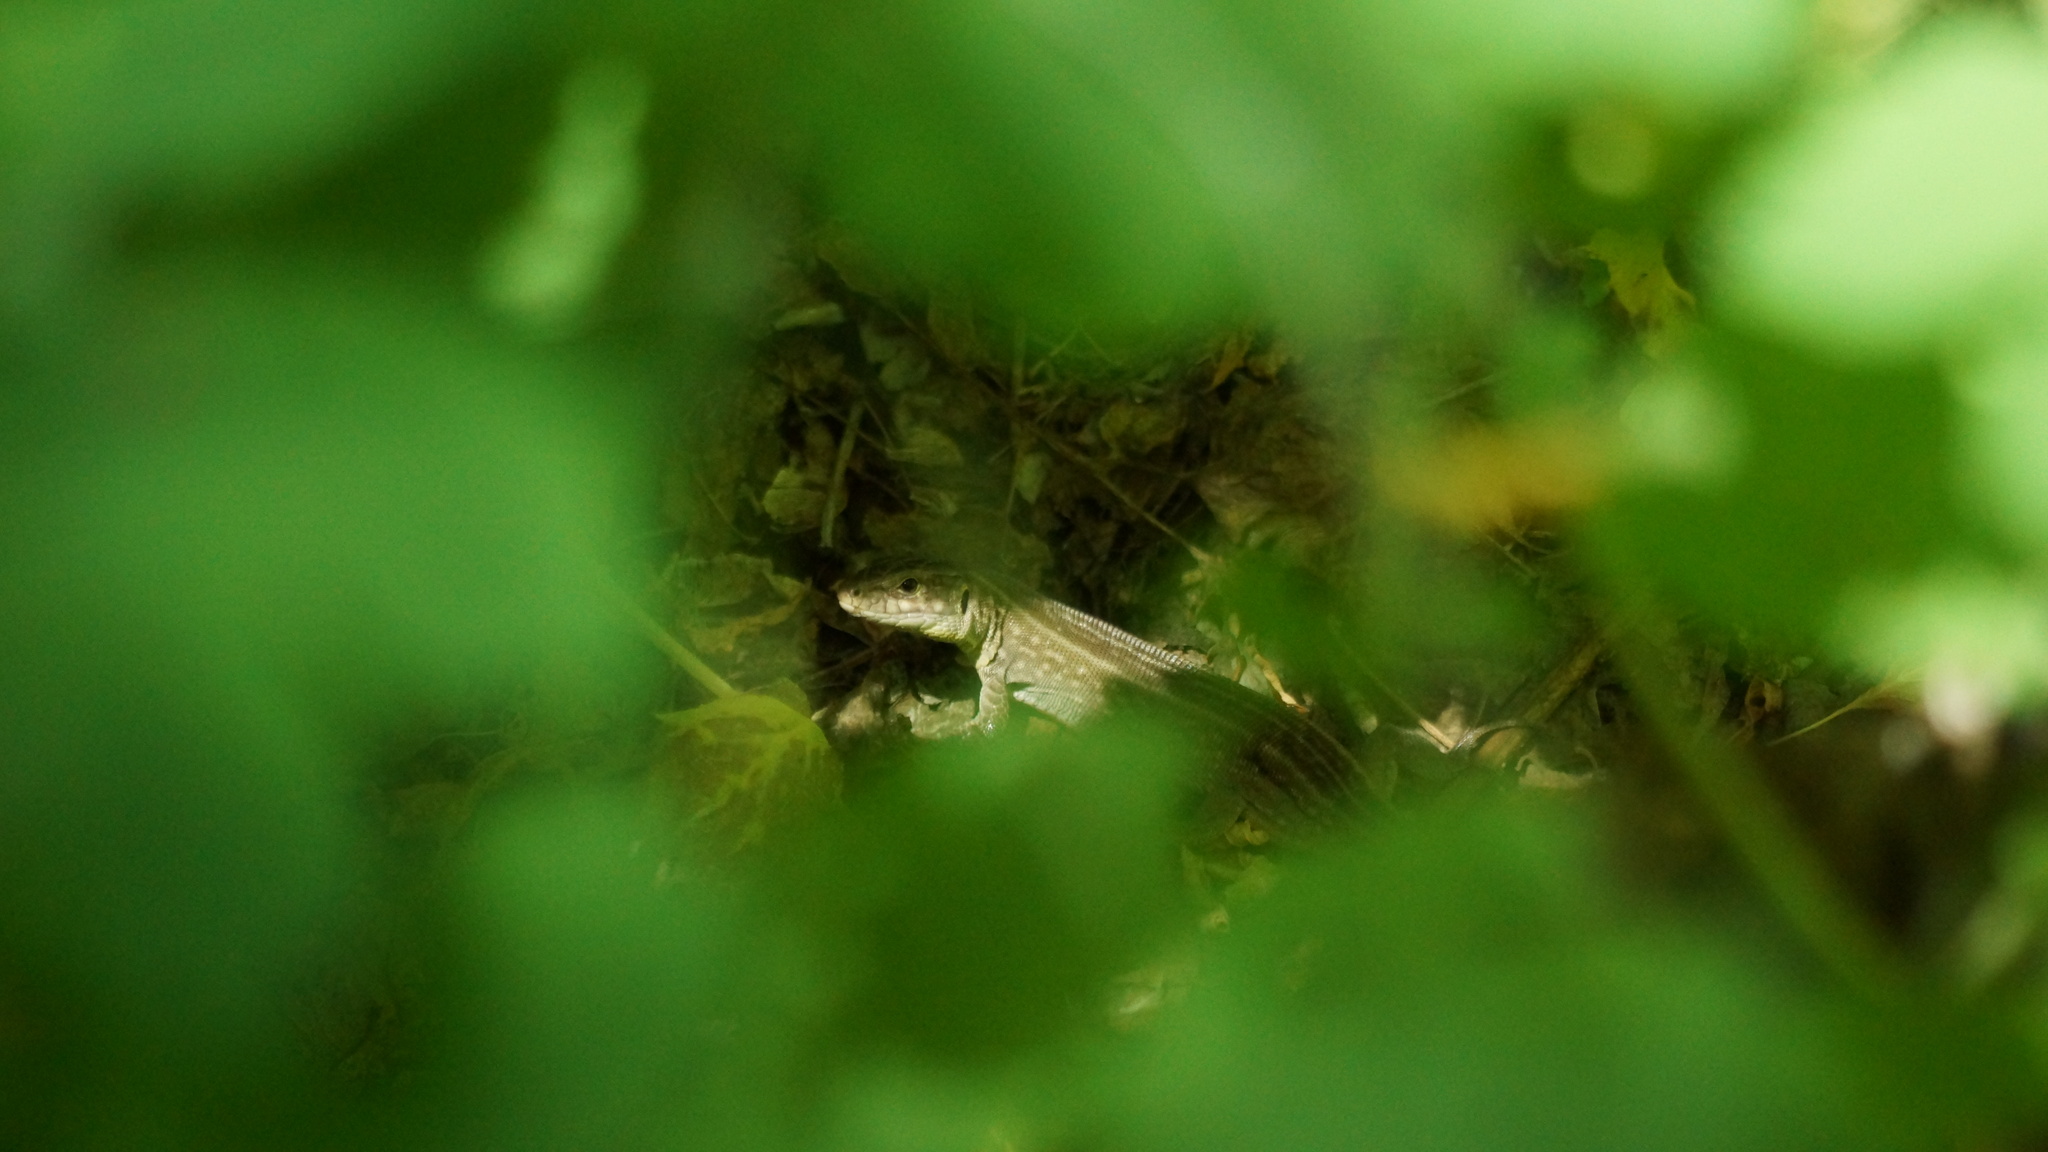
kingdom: Animalia
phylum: Chordata
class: Squamata
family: Lacertidae
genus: Lacerta
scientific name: Lacerta agilis
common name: Sand lizard
